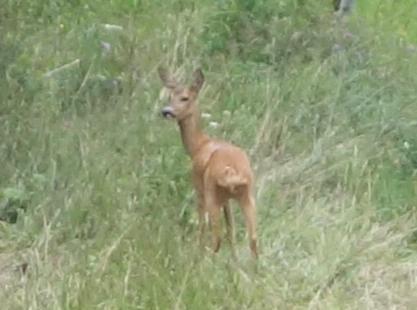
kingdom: Animalia
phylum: Chordata
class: Mammalia
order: Artiodactyla
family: Cervidae
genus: Capreolus
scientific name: Capreolus capreolus
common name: Western roe deer
